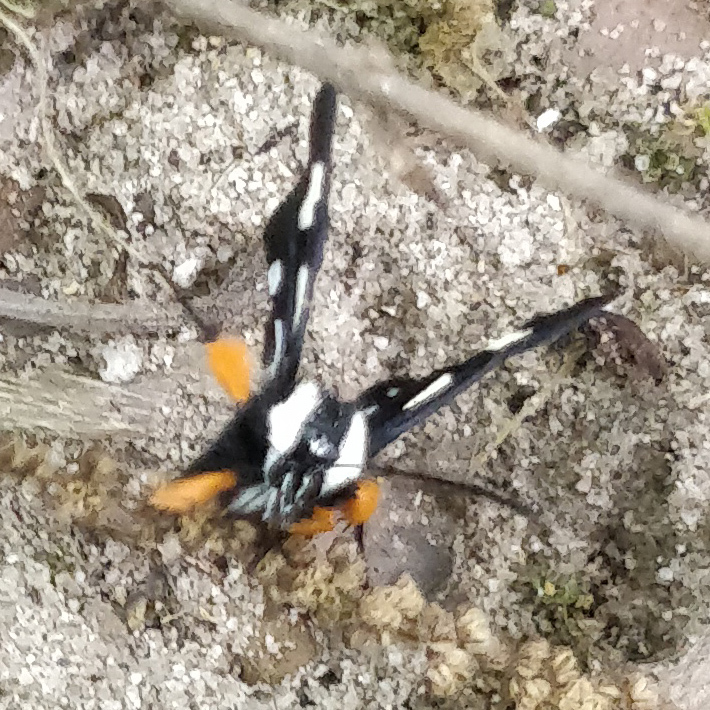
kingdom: Animalia
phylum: Arthropoda
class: Insecta
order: Lepidoptera
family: Noctuidae
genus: Alypia
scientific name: Alypia octomaculata
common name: Eight-spotted forester
